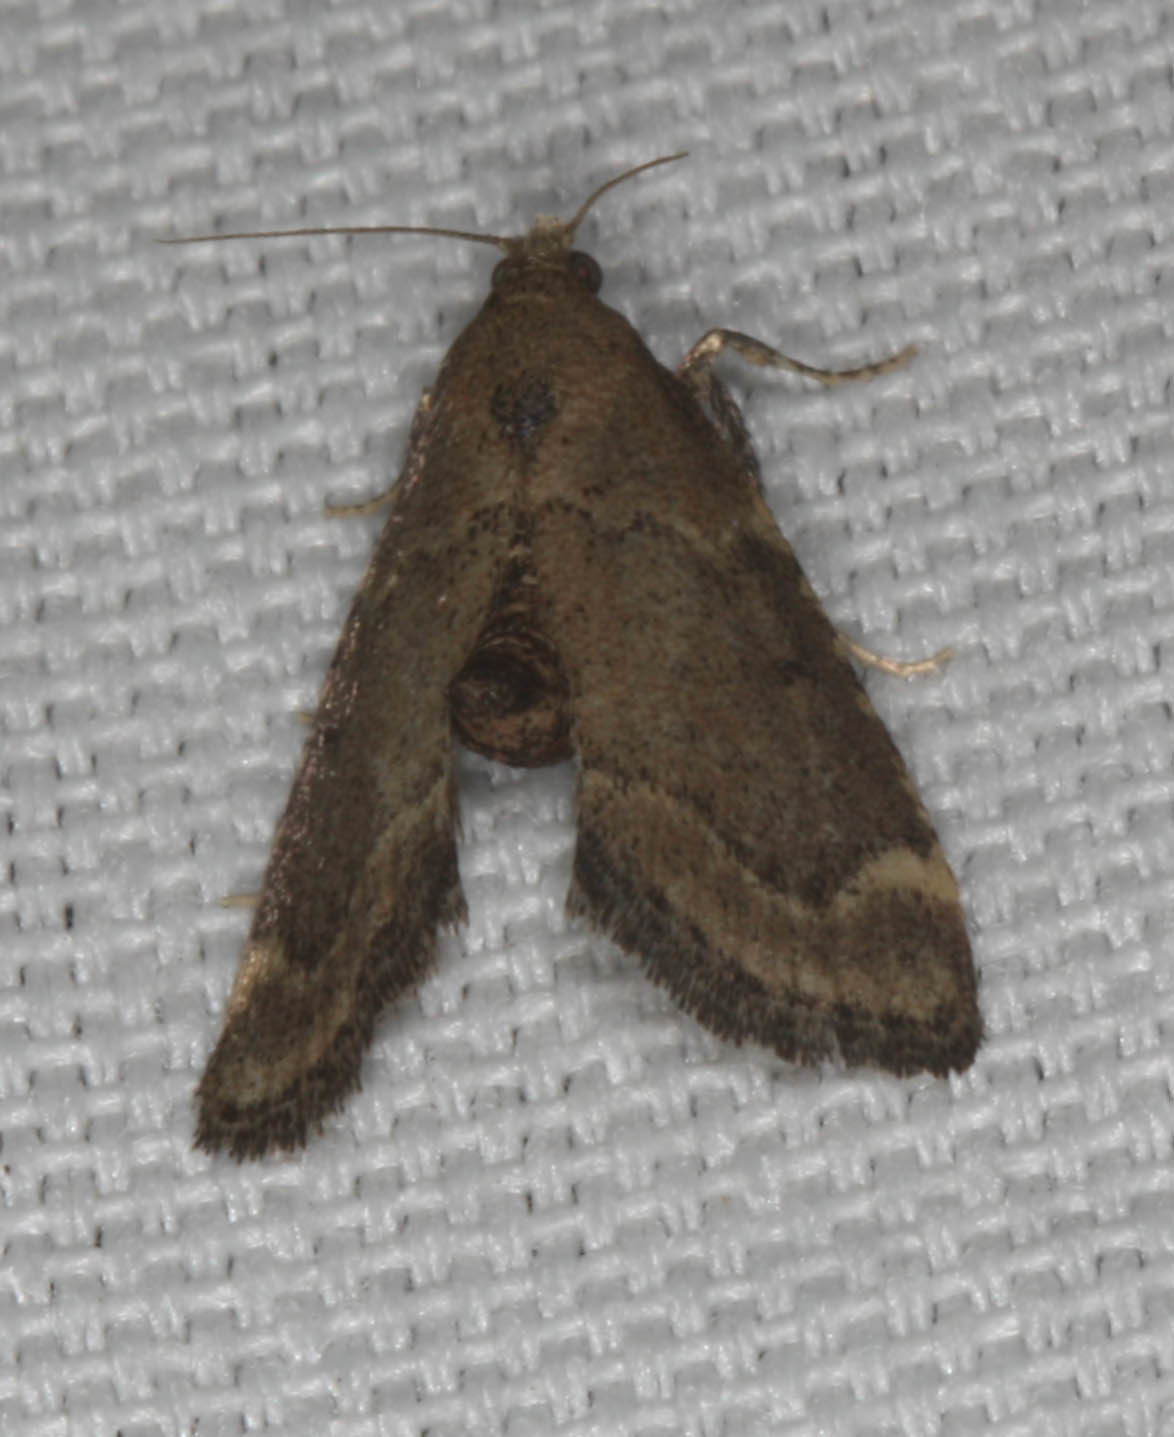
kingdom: Animalia
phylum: Arthropoda
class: Insecta
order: Lepidoptera
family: Pyralidae
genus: Hypsopygia
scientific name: Hypsopygia phoezalis
